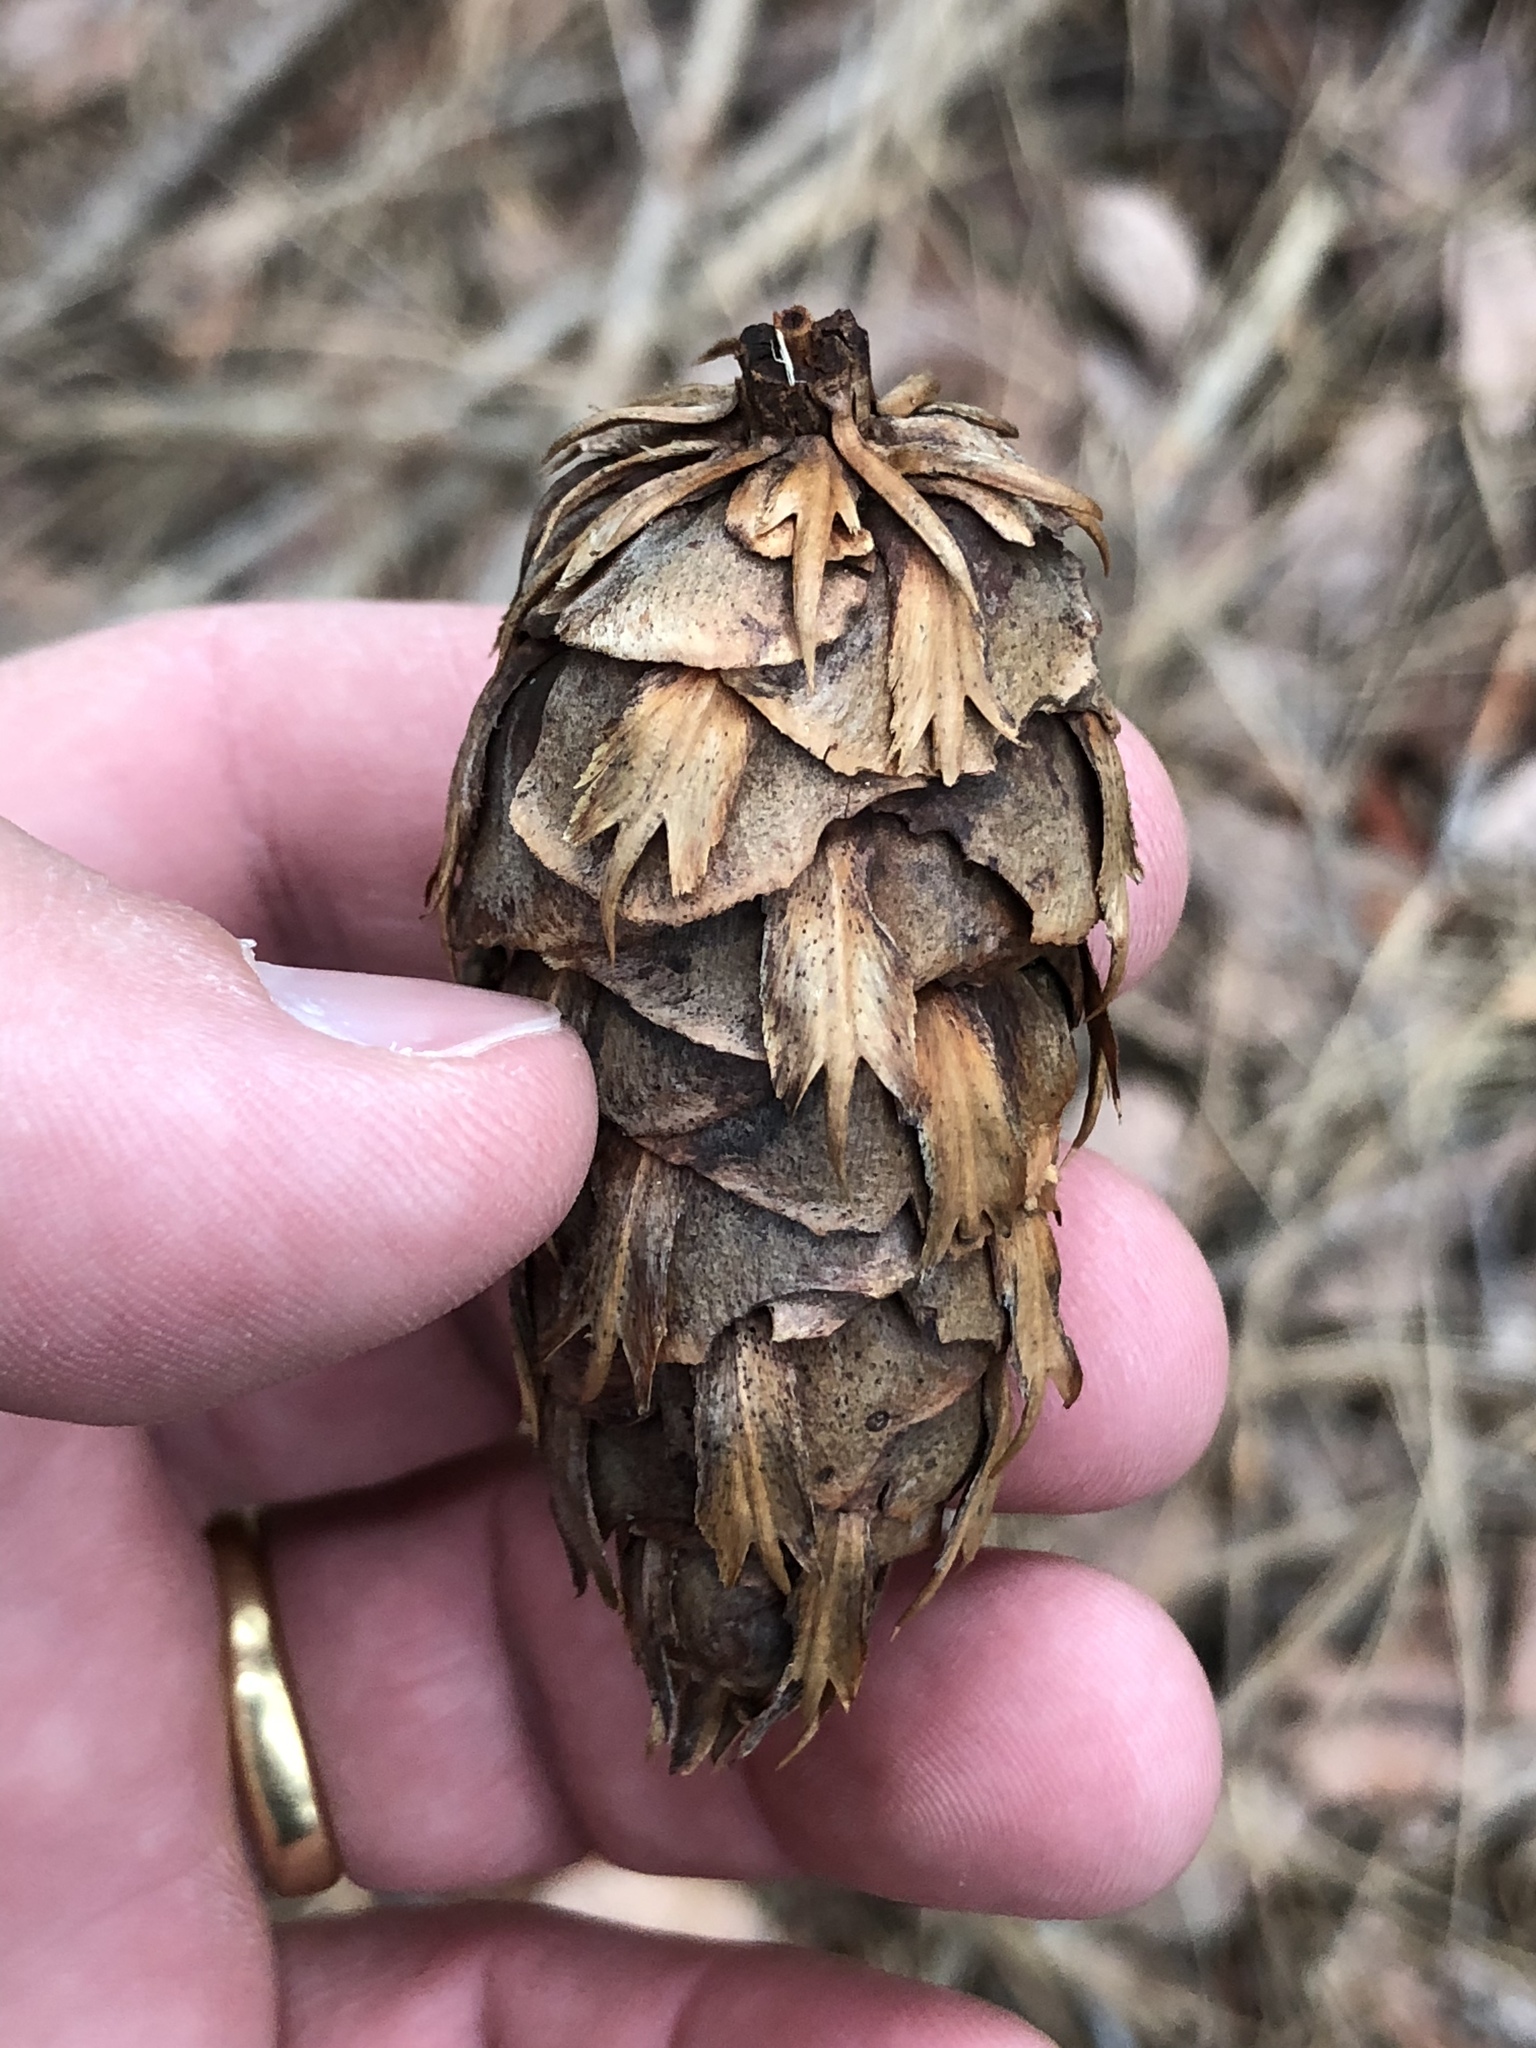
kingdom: Plantae
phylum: Tracheophyta
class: Pinopsida
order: Pinales
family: Pinaceae
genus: Pseudotsuga
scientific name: Pseudotsuga menziesii
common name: Douglas fir
